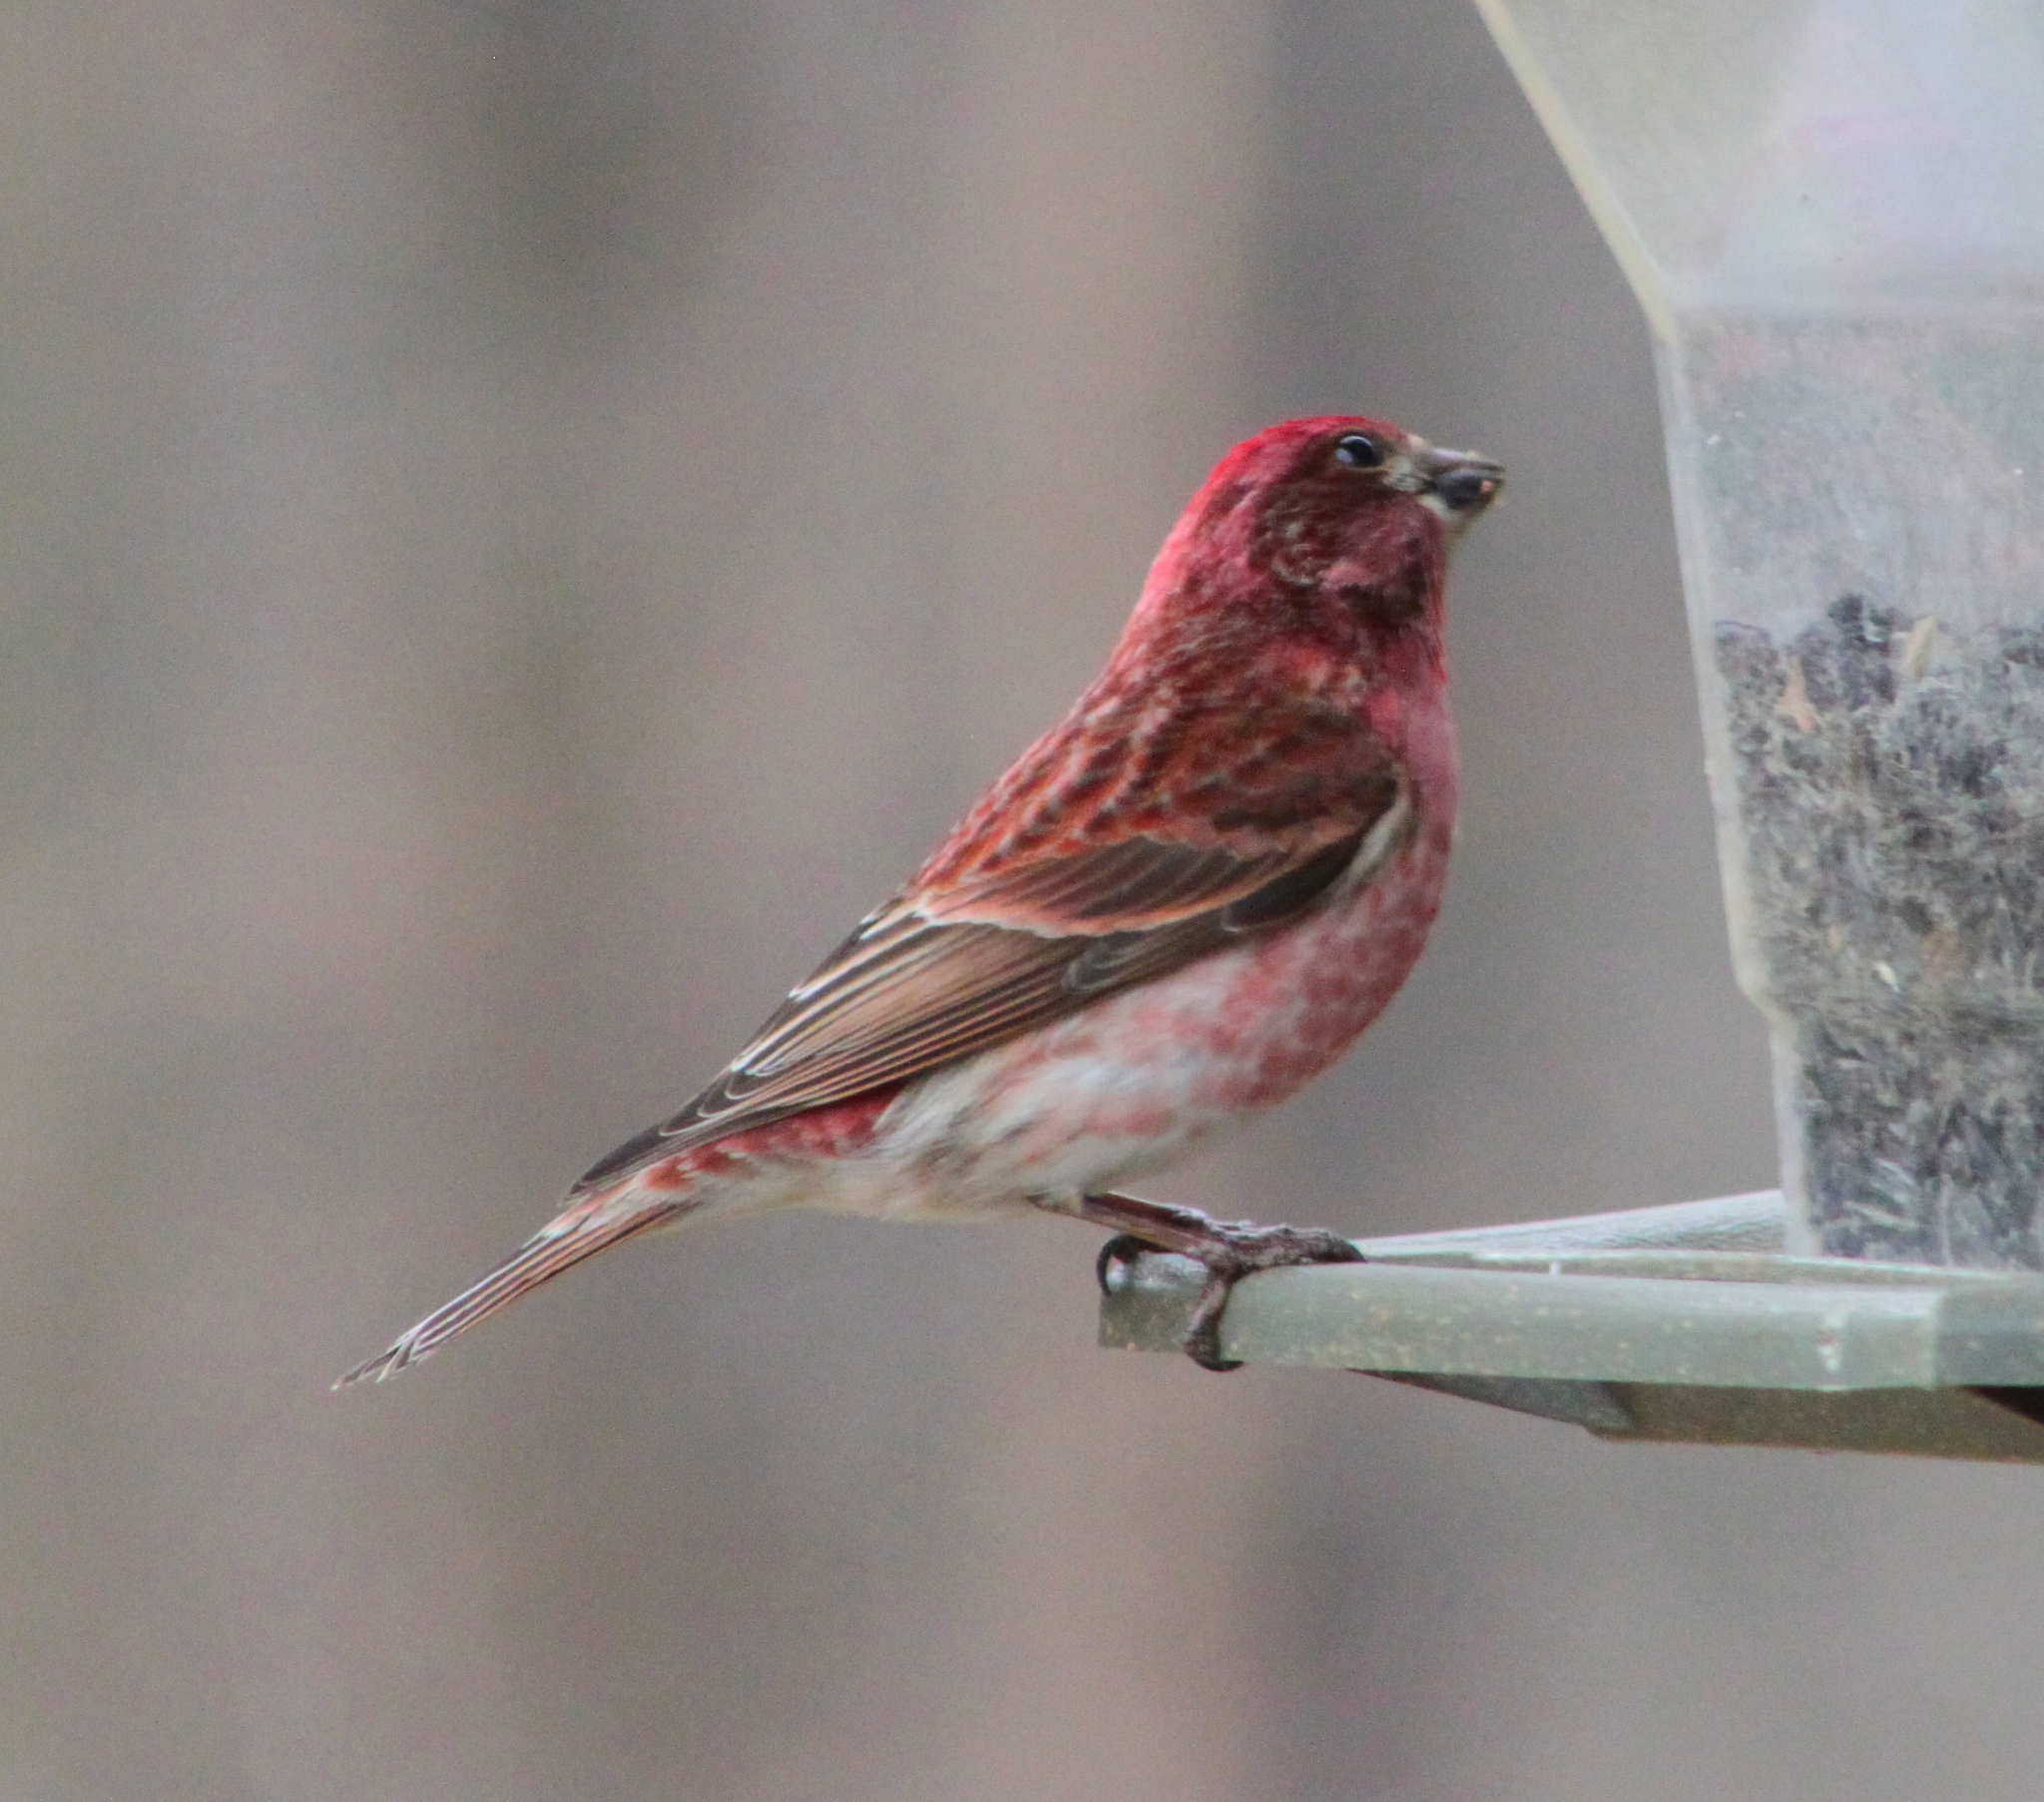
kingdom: Animalia
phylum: Chordata
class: Aves
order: Passeriformes
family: Fringillidae
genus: Haemorhous
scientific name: Haemorhous purpureus
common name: Purple finch
